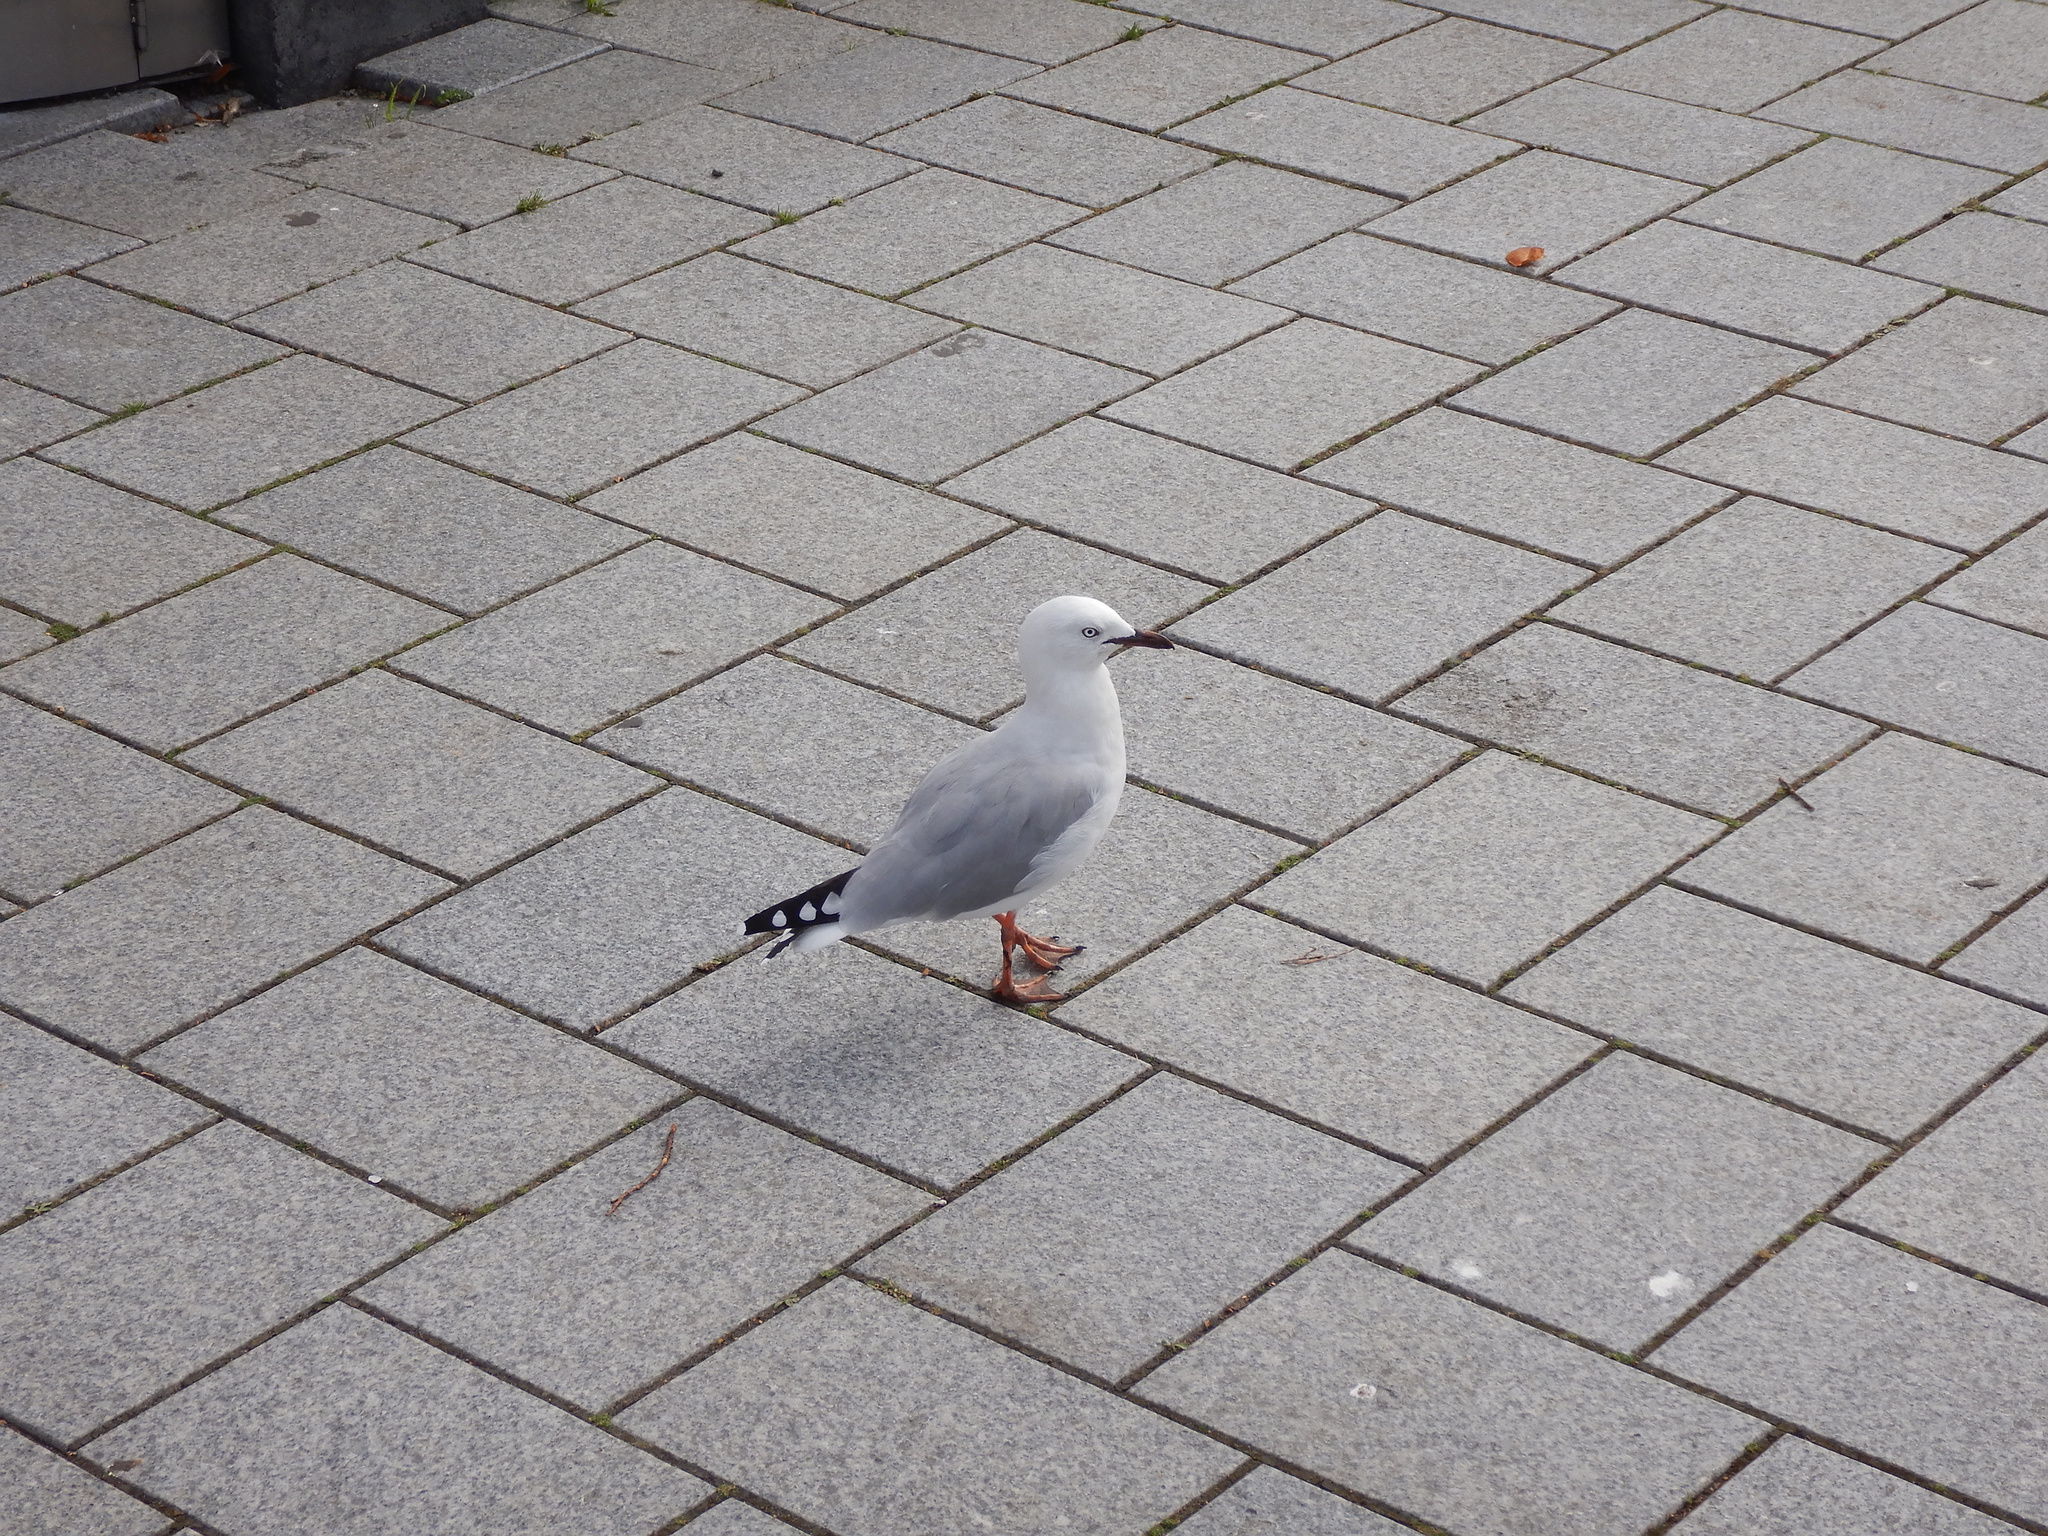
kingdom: Animalia
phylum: Chordata
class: Aves
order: Charadriiformes
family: Laridae
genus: Chroicocephalus
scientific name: Chroicocephalus novaehollandiae
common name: Silver gull
